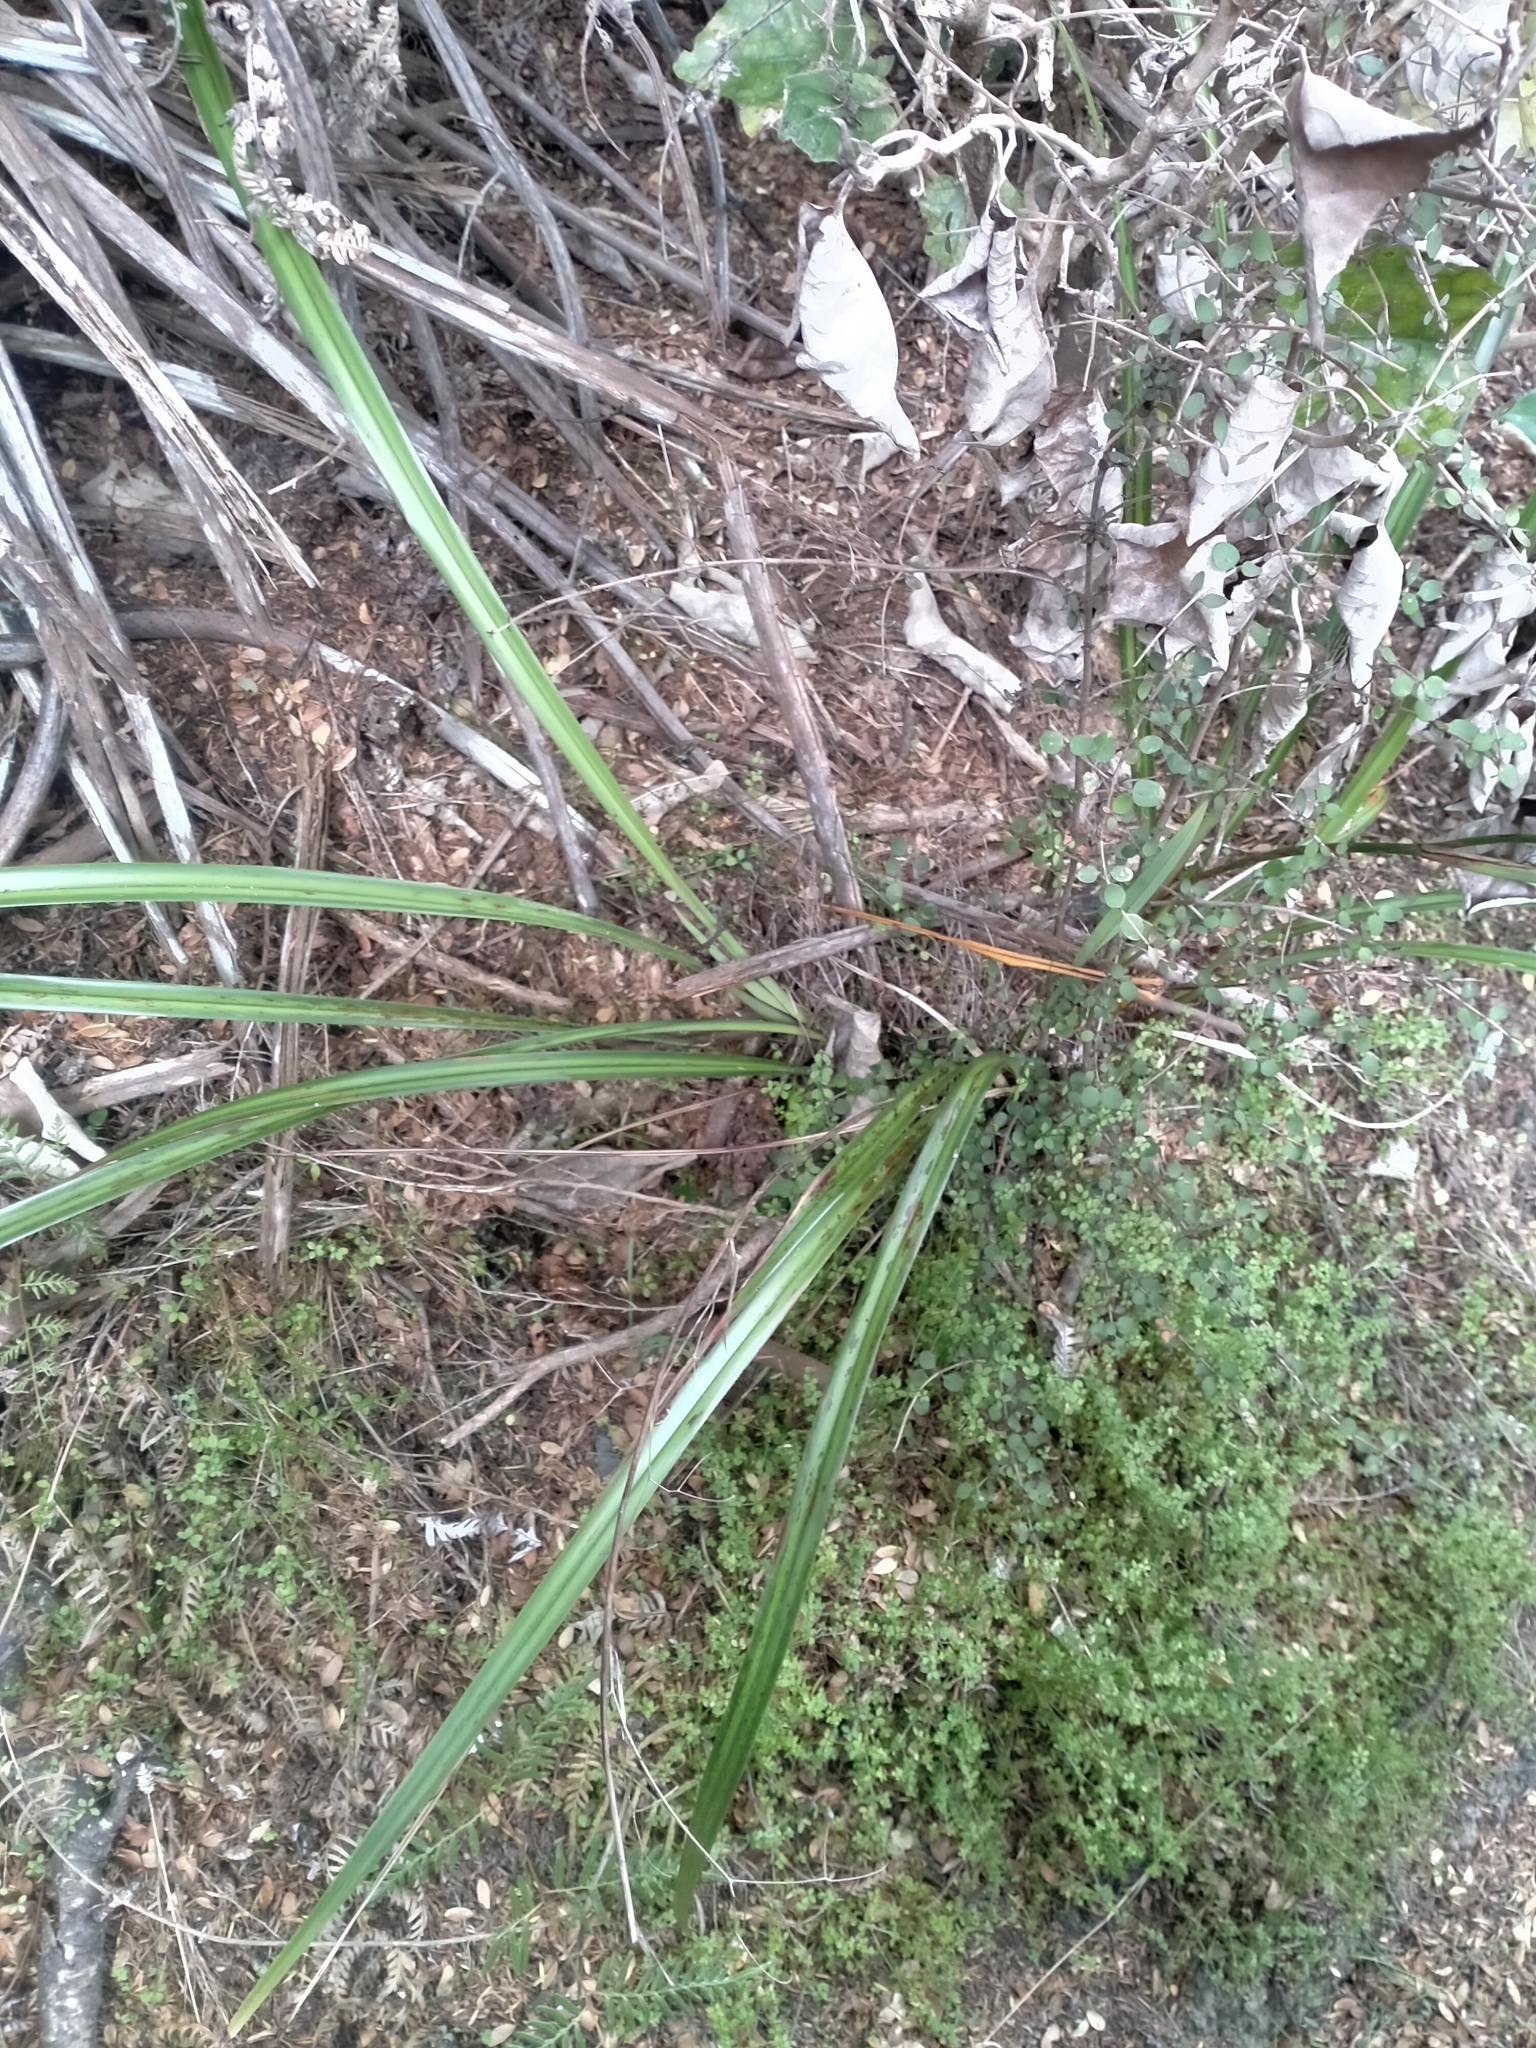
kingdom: Plantae
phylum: Tracheophyta
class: Liliopsida
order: Asparagales
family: Asphodelaceae
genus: Dianella
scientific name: Dianella nigra
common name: New zealand-blueberry
